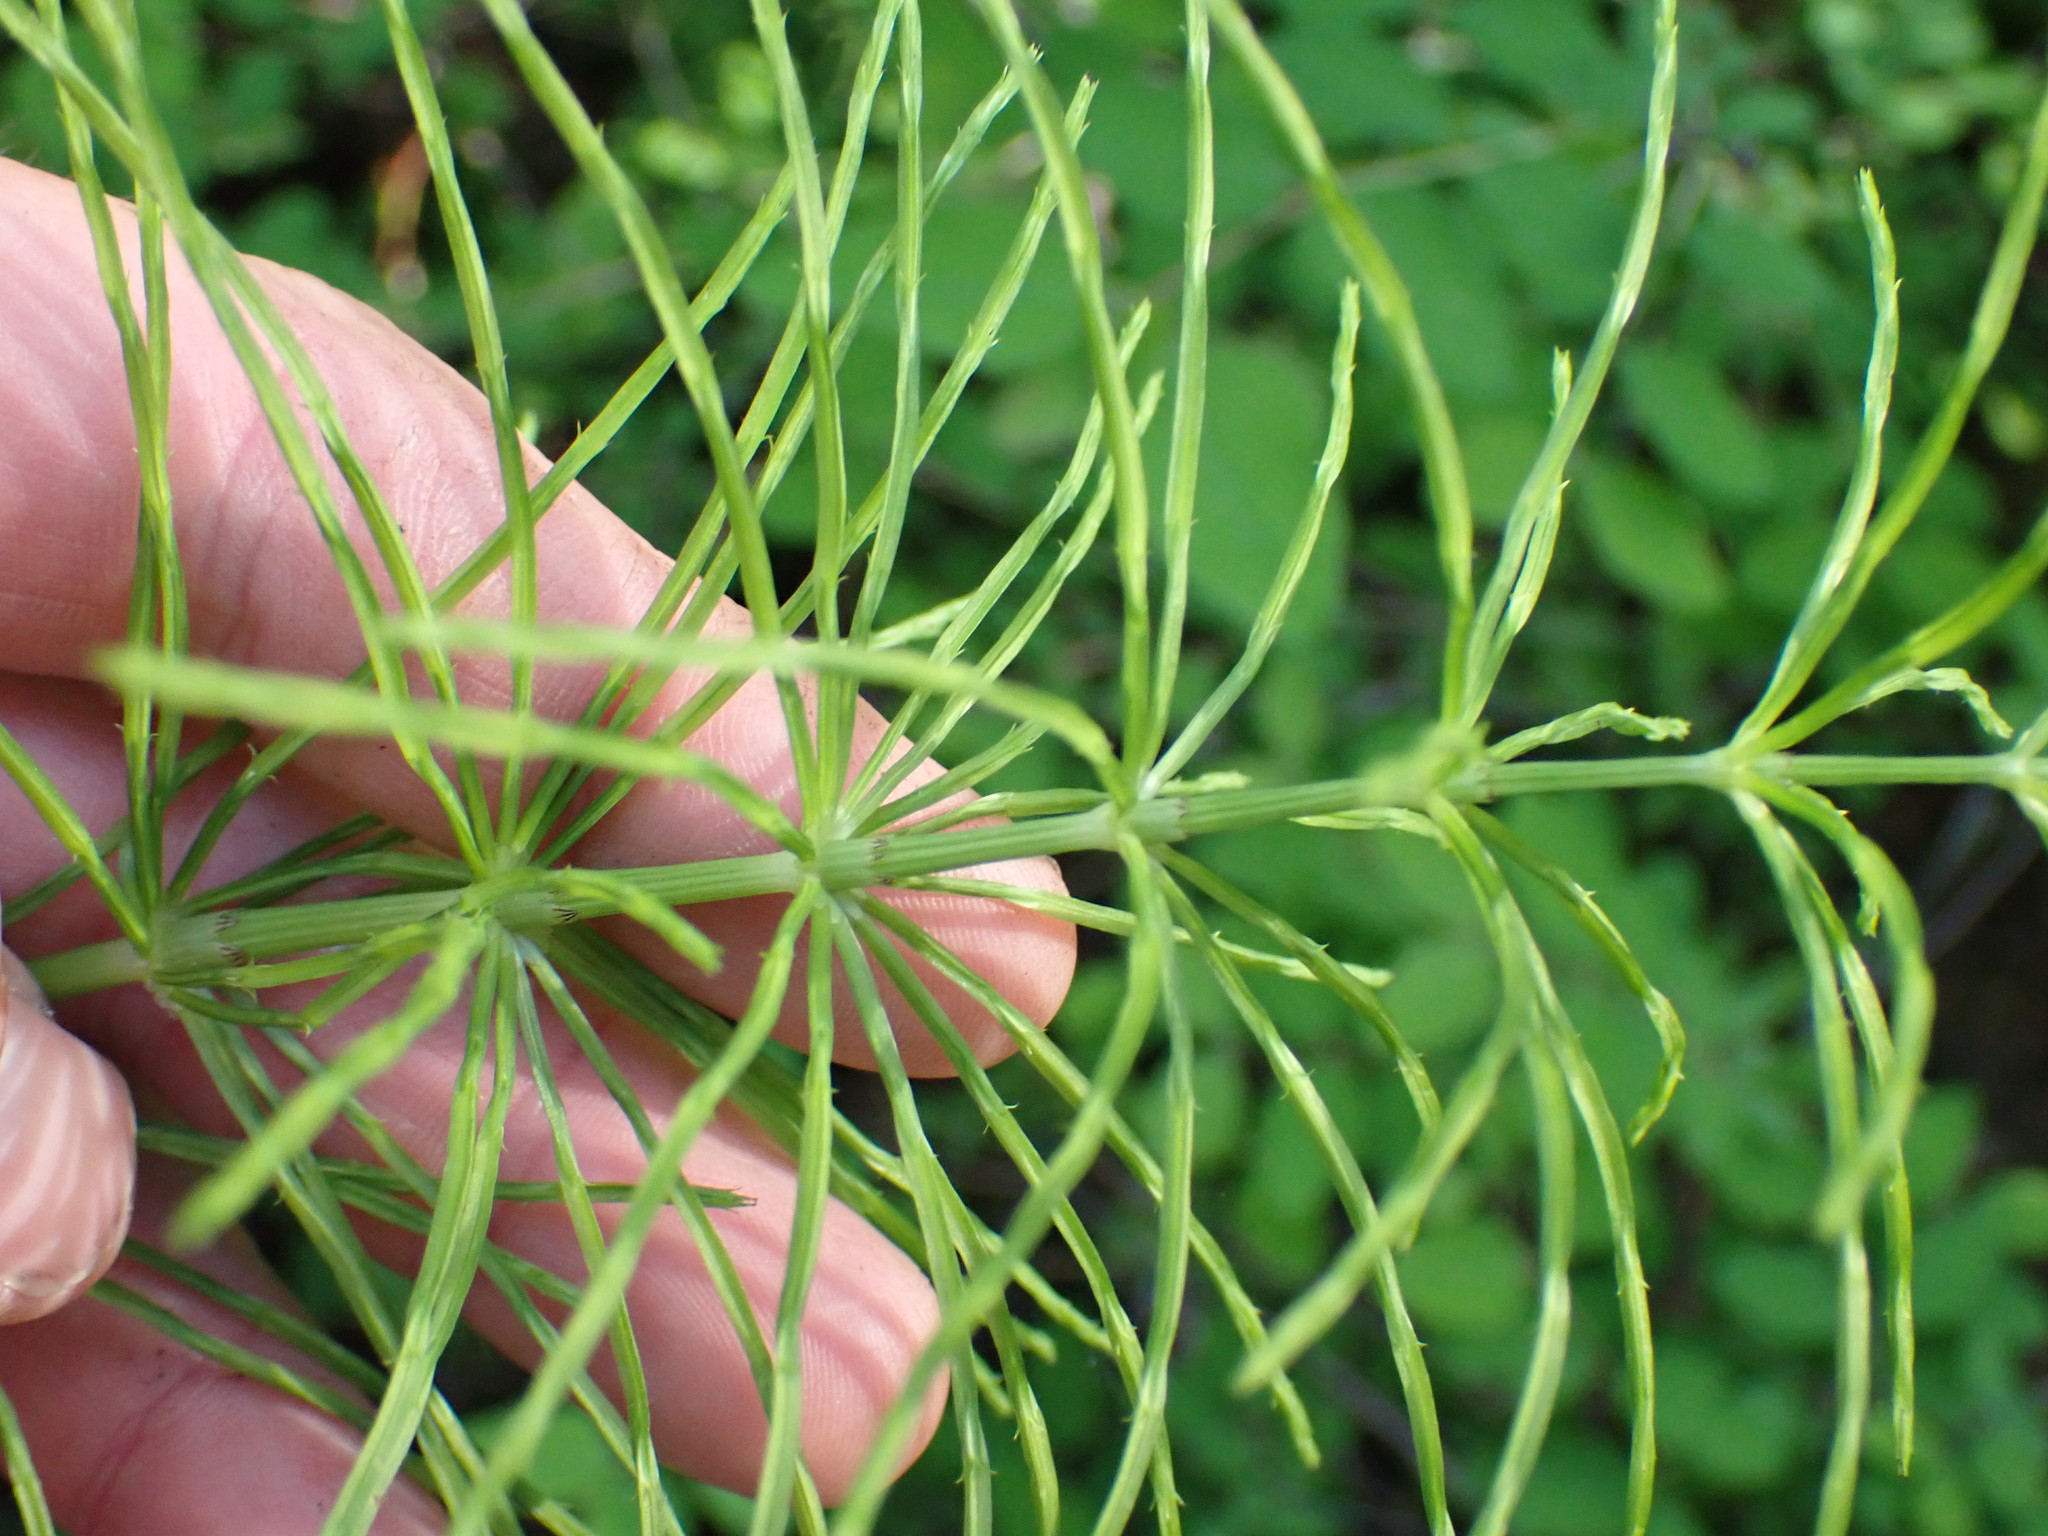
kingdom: Plantae
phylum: Tracheophyta
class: Polypodiopsida
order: Equisetales
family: Equisetaceae
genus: Equisetum
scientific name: Equisetum arvense
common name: Field horsetail
